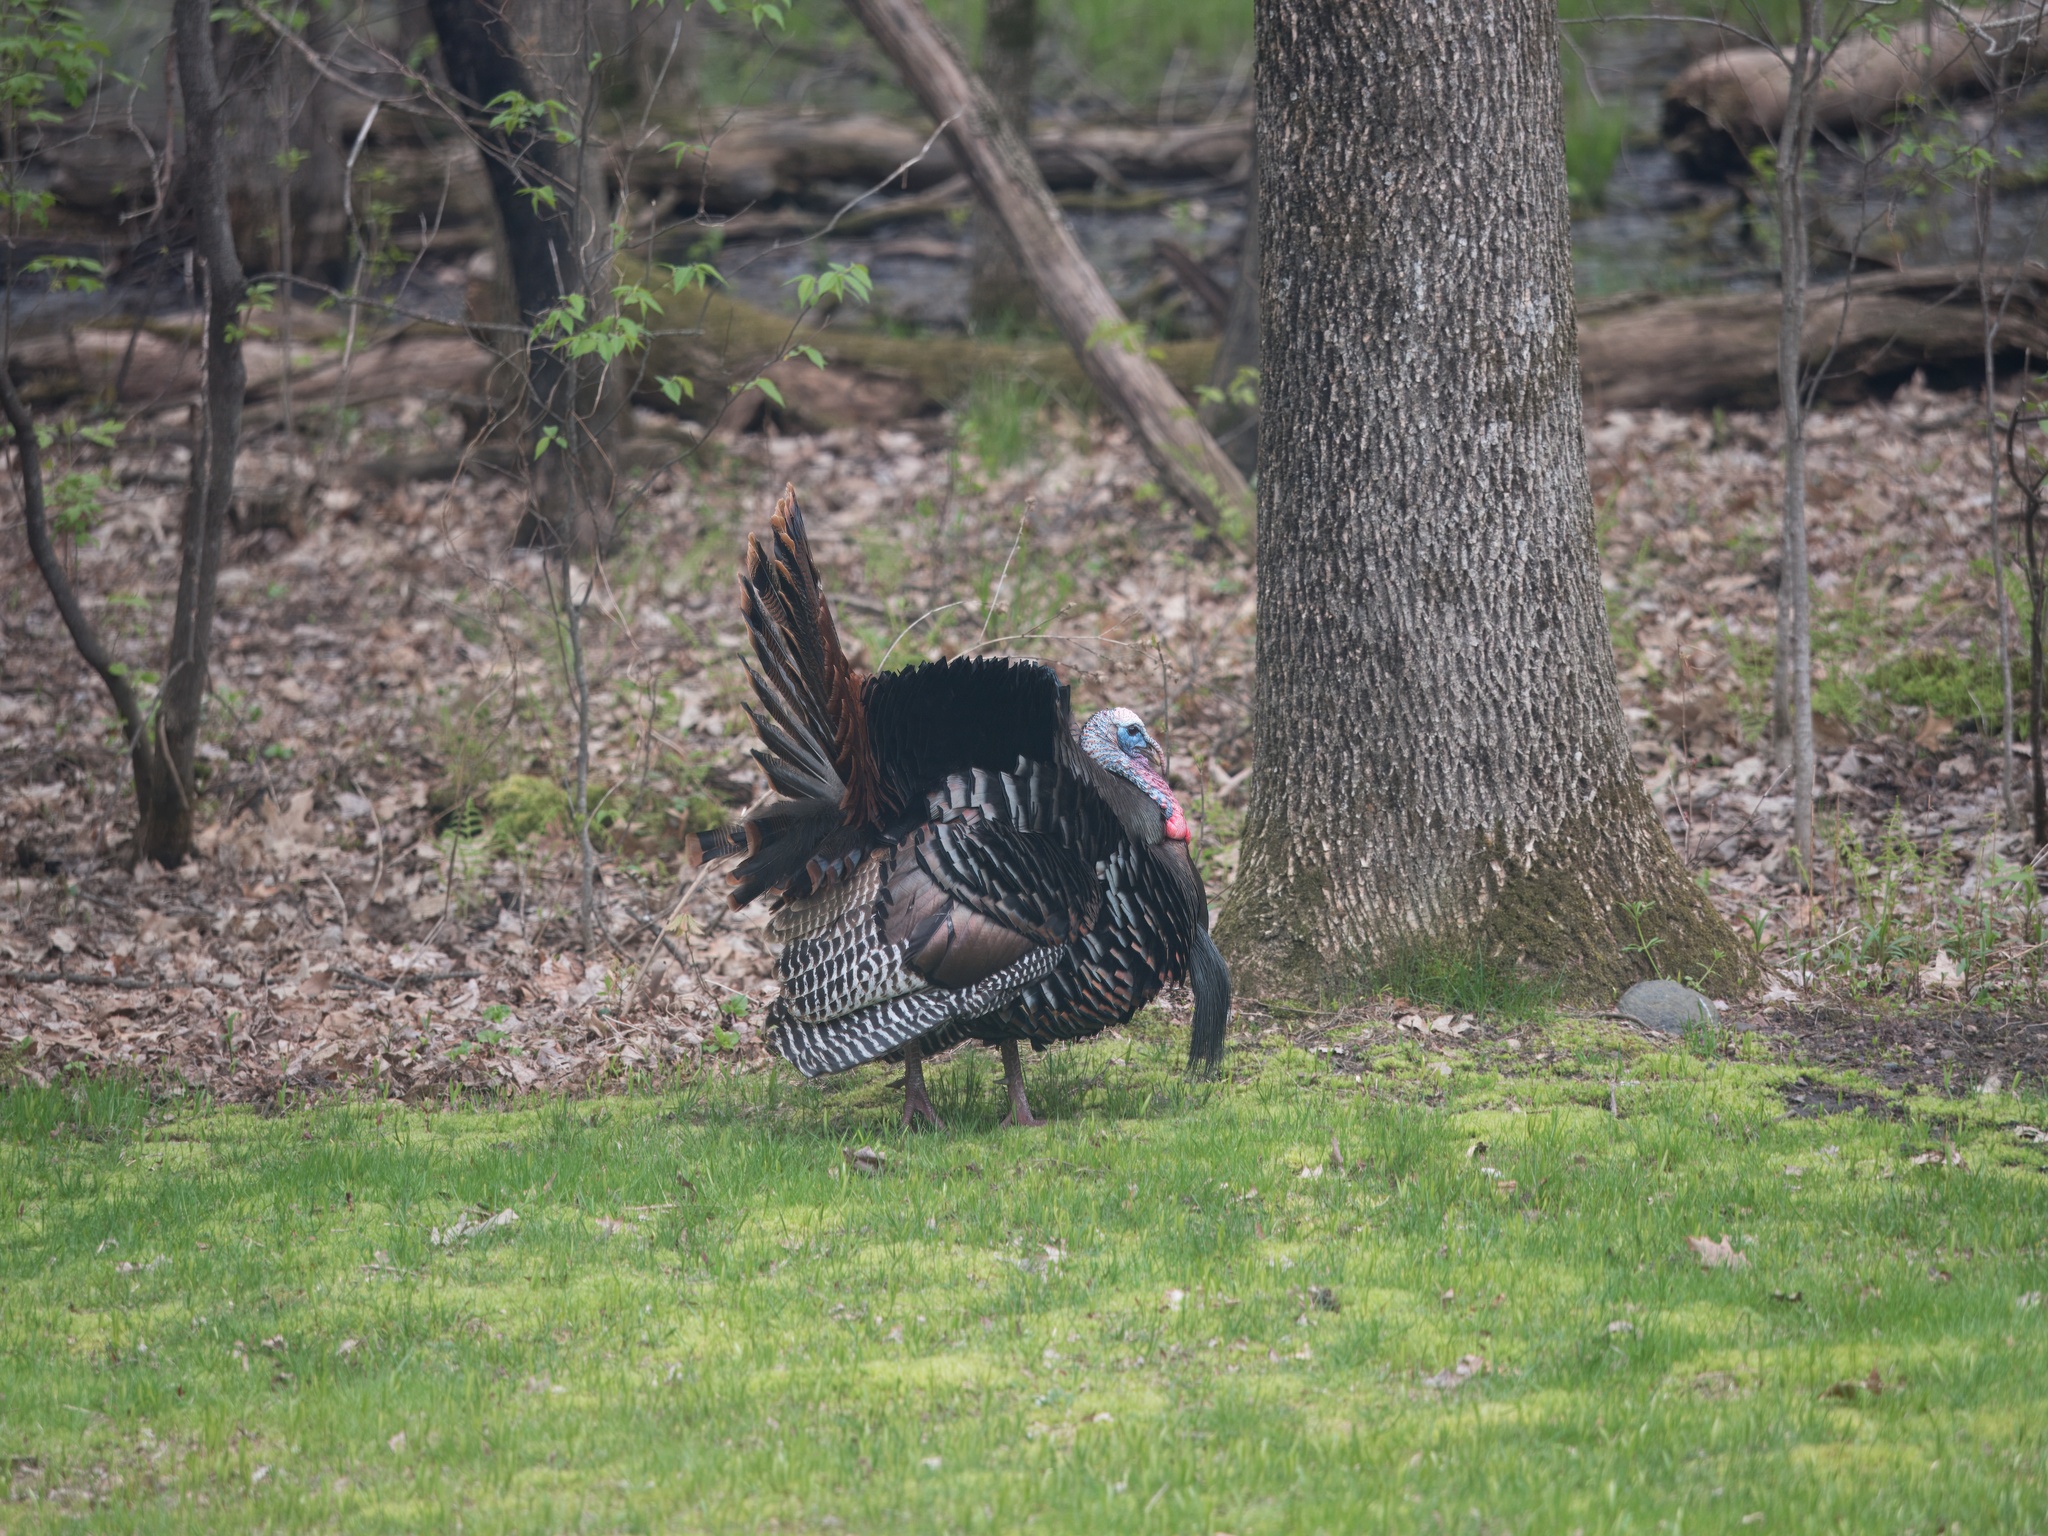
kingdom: Animalia
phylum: Chordata
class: Aves
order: Galliformes
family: Phasianidae
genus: Meleagris
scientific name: Meleagris gallopavo
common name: Wild turkey
